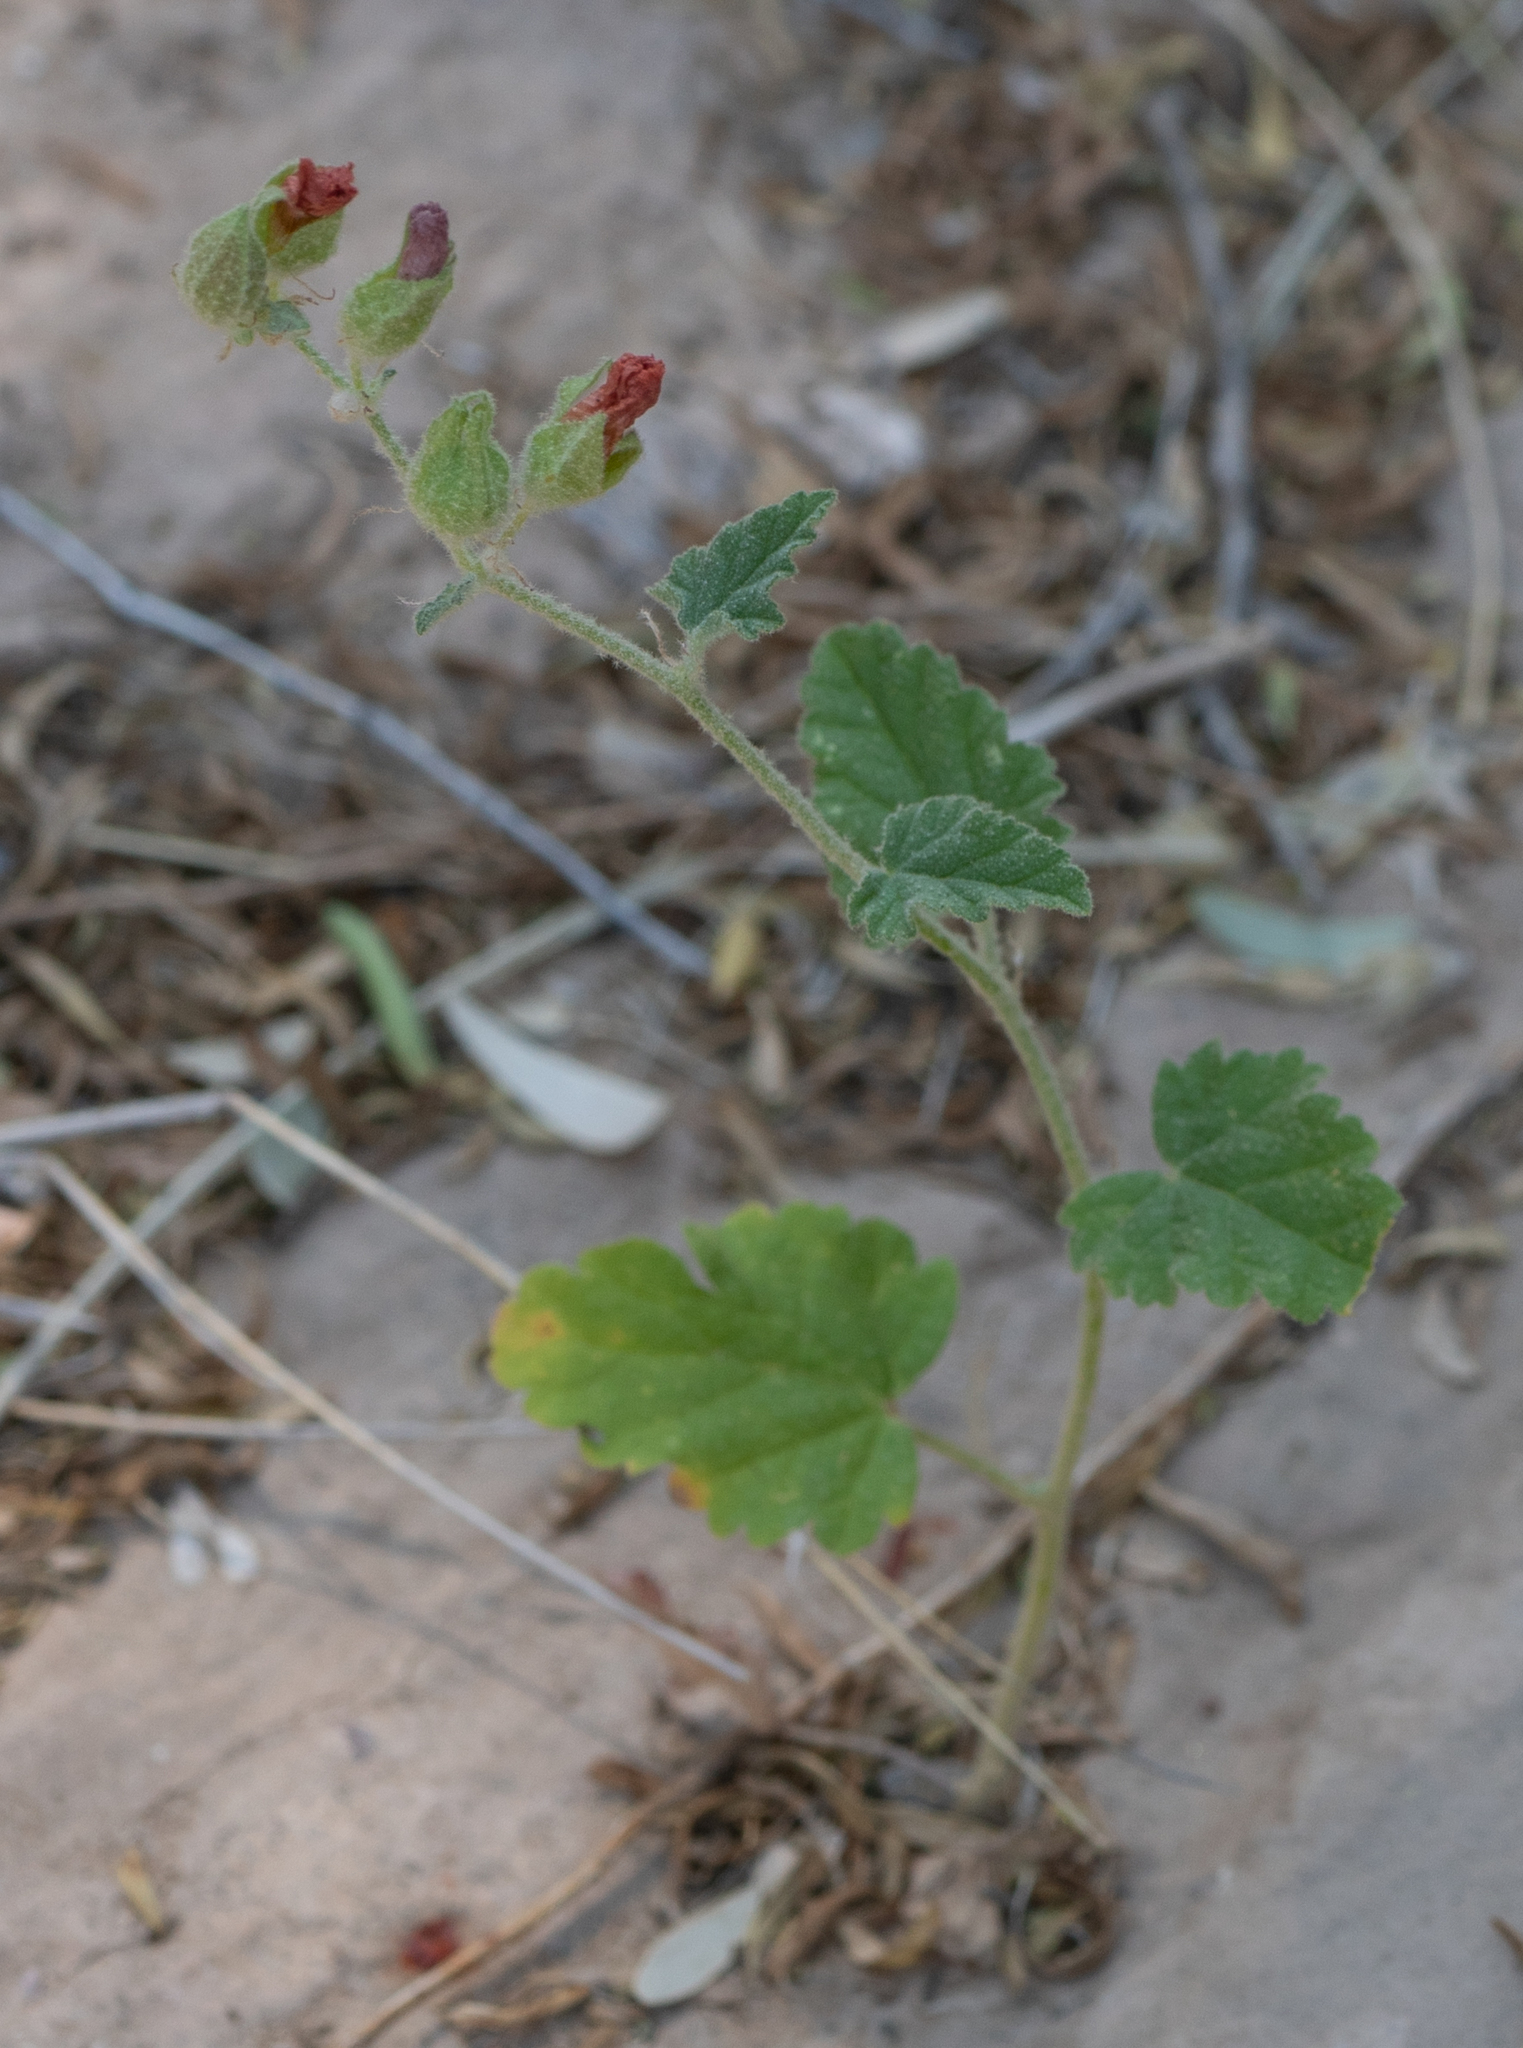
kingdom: Plantae
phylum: Tracheophyta
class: Magnoliopsida
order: Malvales
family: Malvaceae
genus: Sphaeralcea
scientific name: Sphaeralcea ambigua
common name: Apricot globe-mallow
